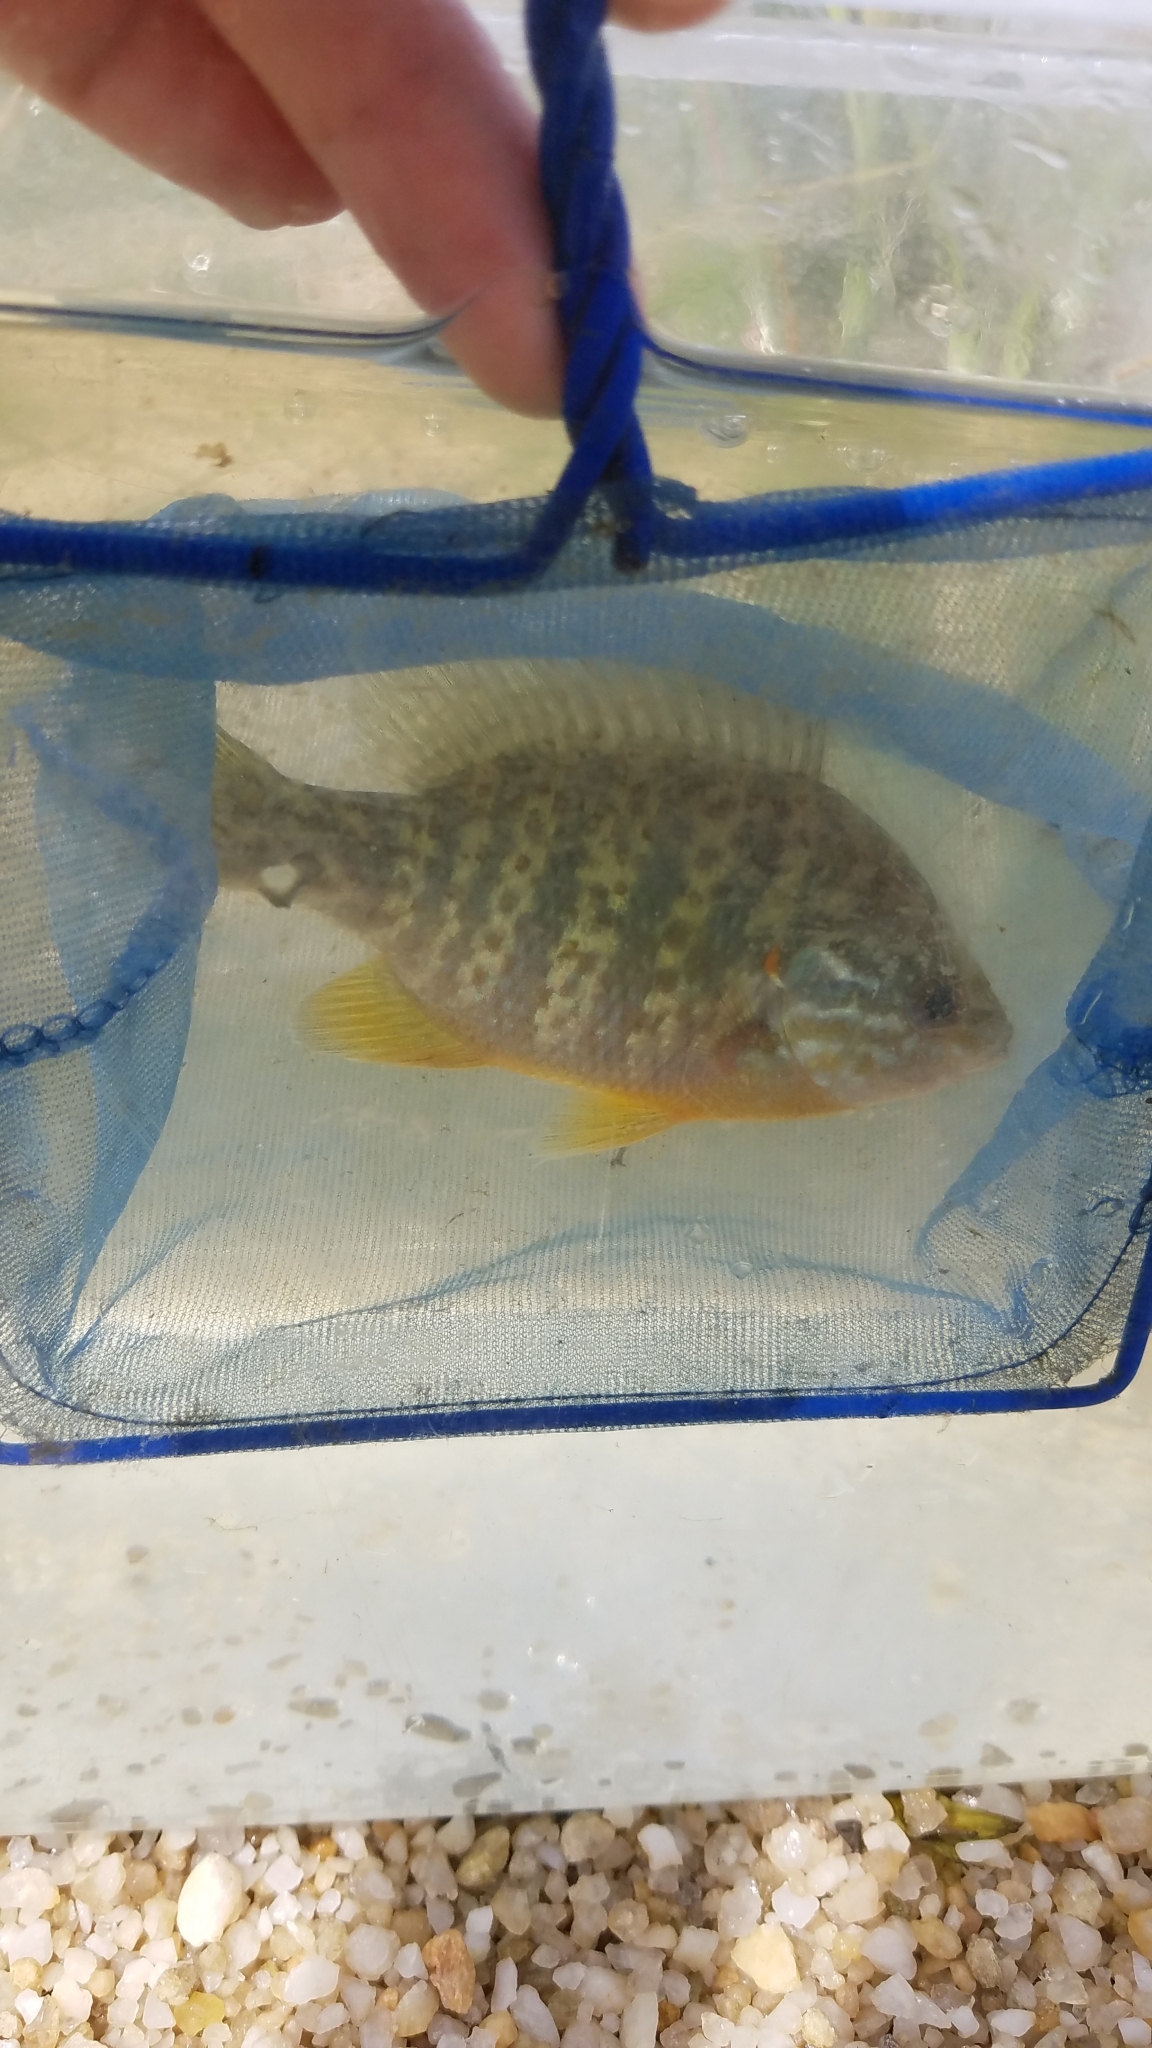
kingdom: Animalia
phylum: Chordata
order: Perciformes
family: Centrarchidae
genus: Lepomis
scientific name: Lepomis gibbosus
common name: Pumpkinseed
